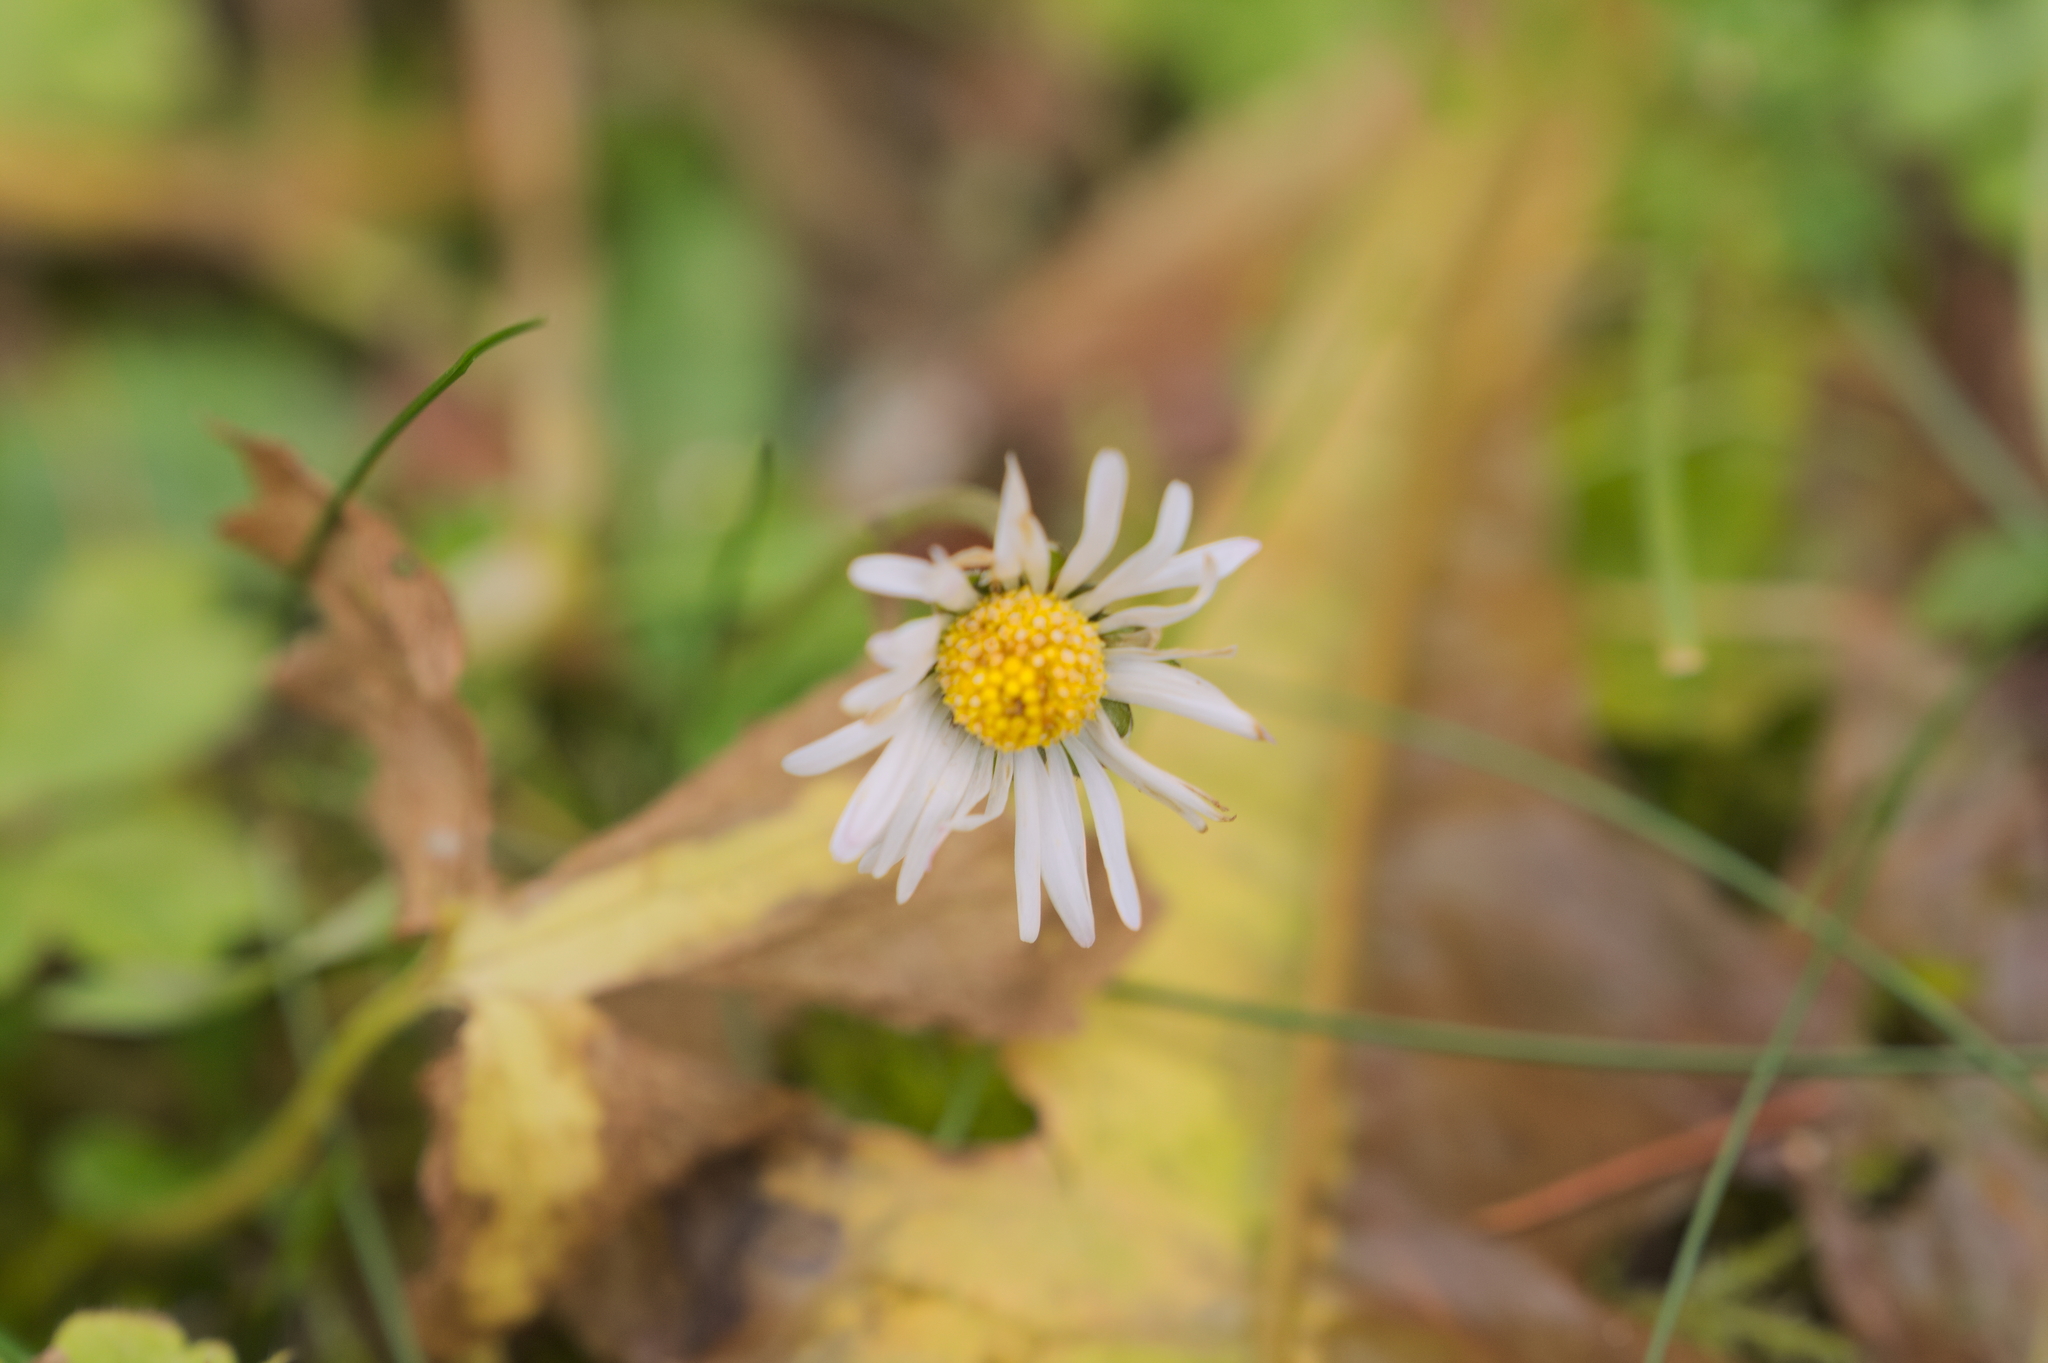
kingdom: Plantae
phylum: Tracheophyta
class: Magnoliopsida
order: Asterales
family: Asteraceae
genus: Bellis
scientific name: Bellis perennis
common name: Lawndaisy
